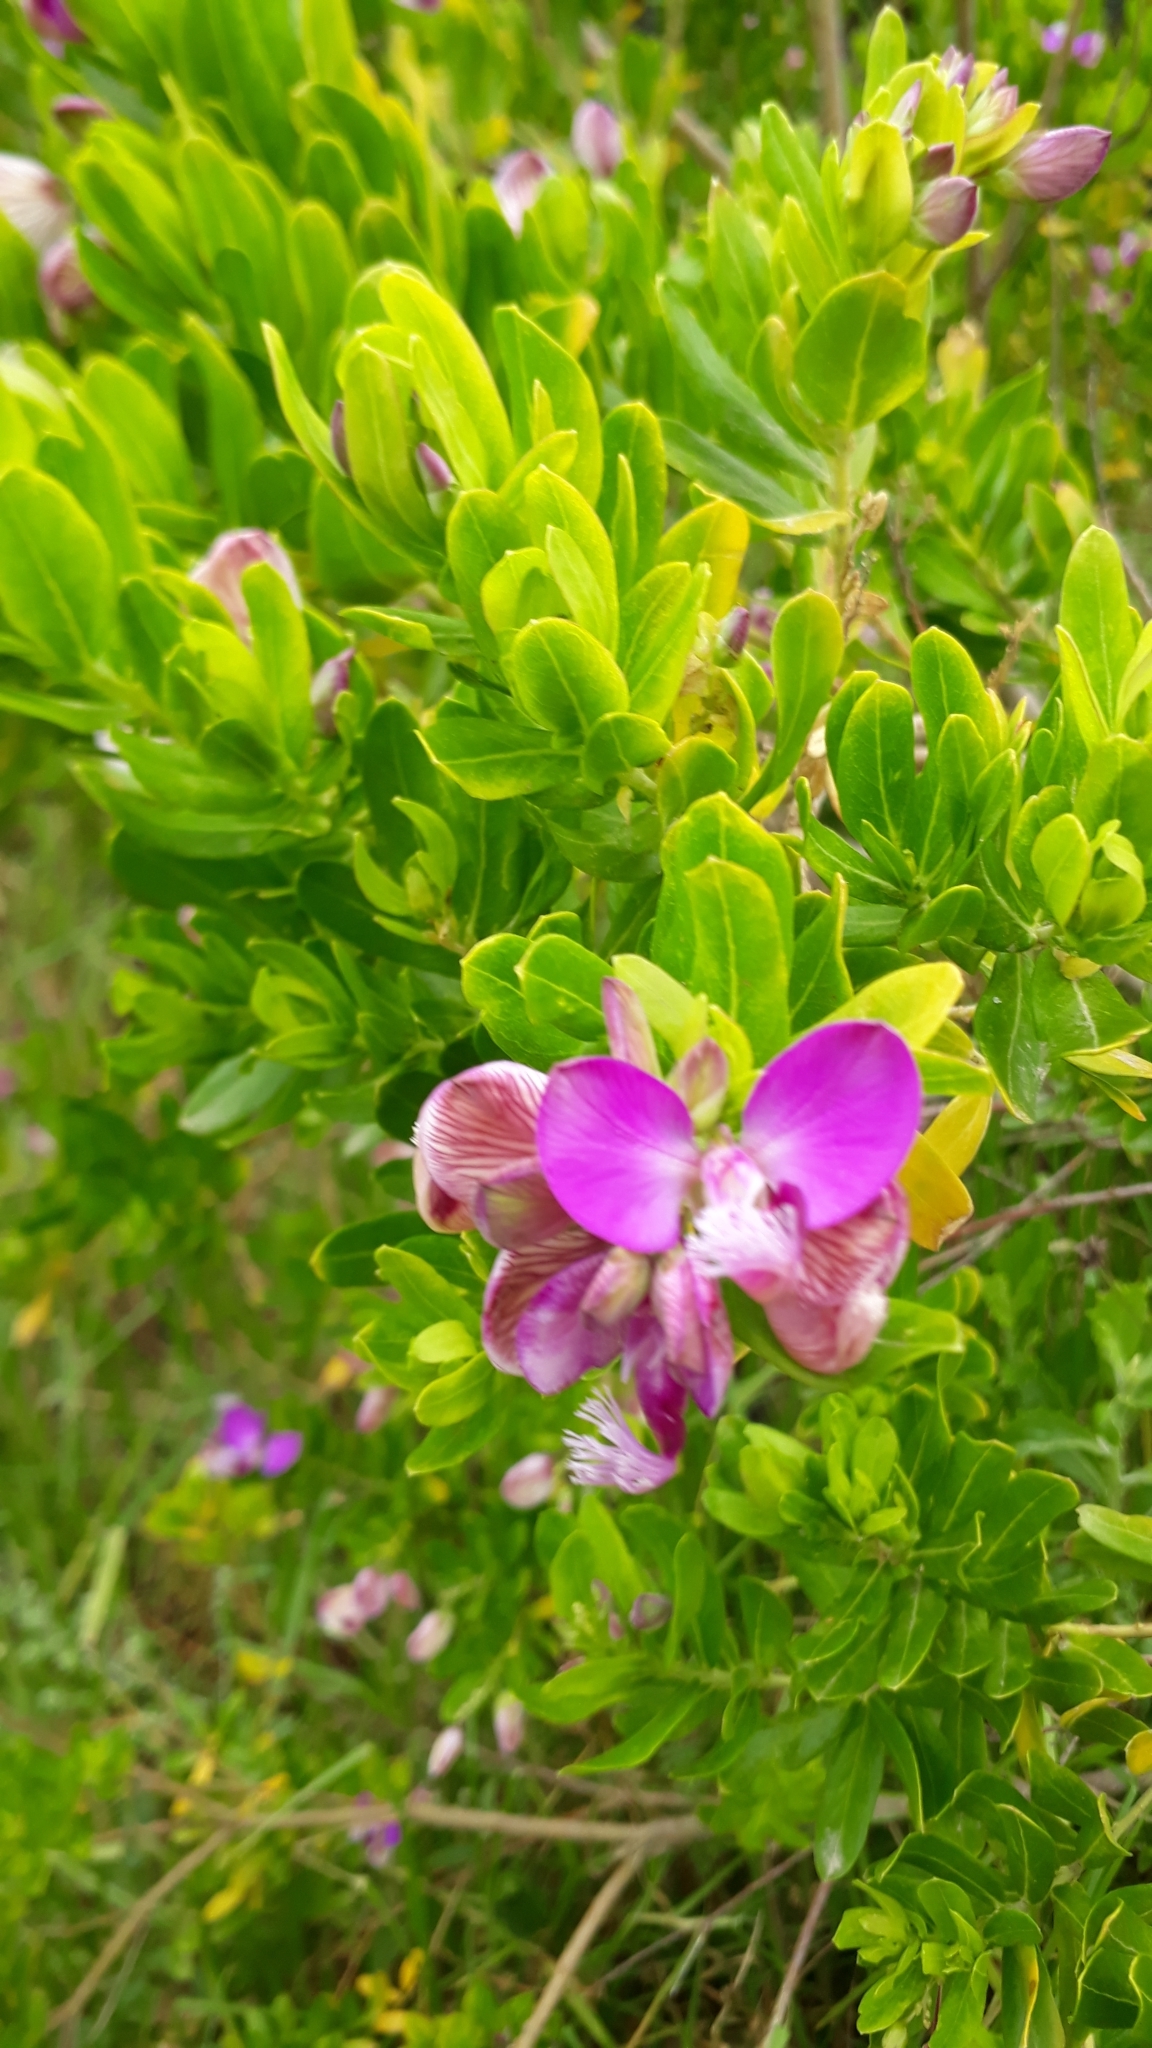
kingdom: Plantae
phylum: Tracheophyta
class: Magnoliopsida
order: Fabales
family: Polygalaceae
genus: Polygala
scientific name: Polygala myrtifolia
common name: Myrtle-leaf milkwort
